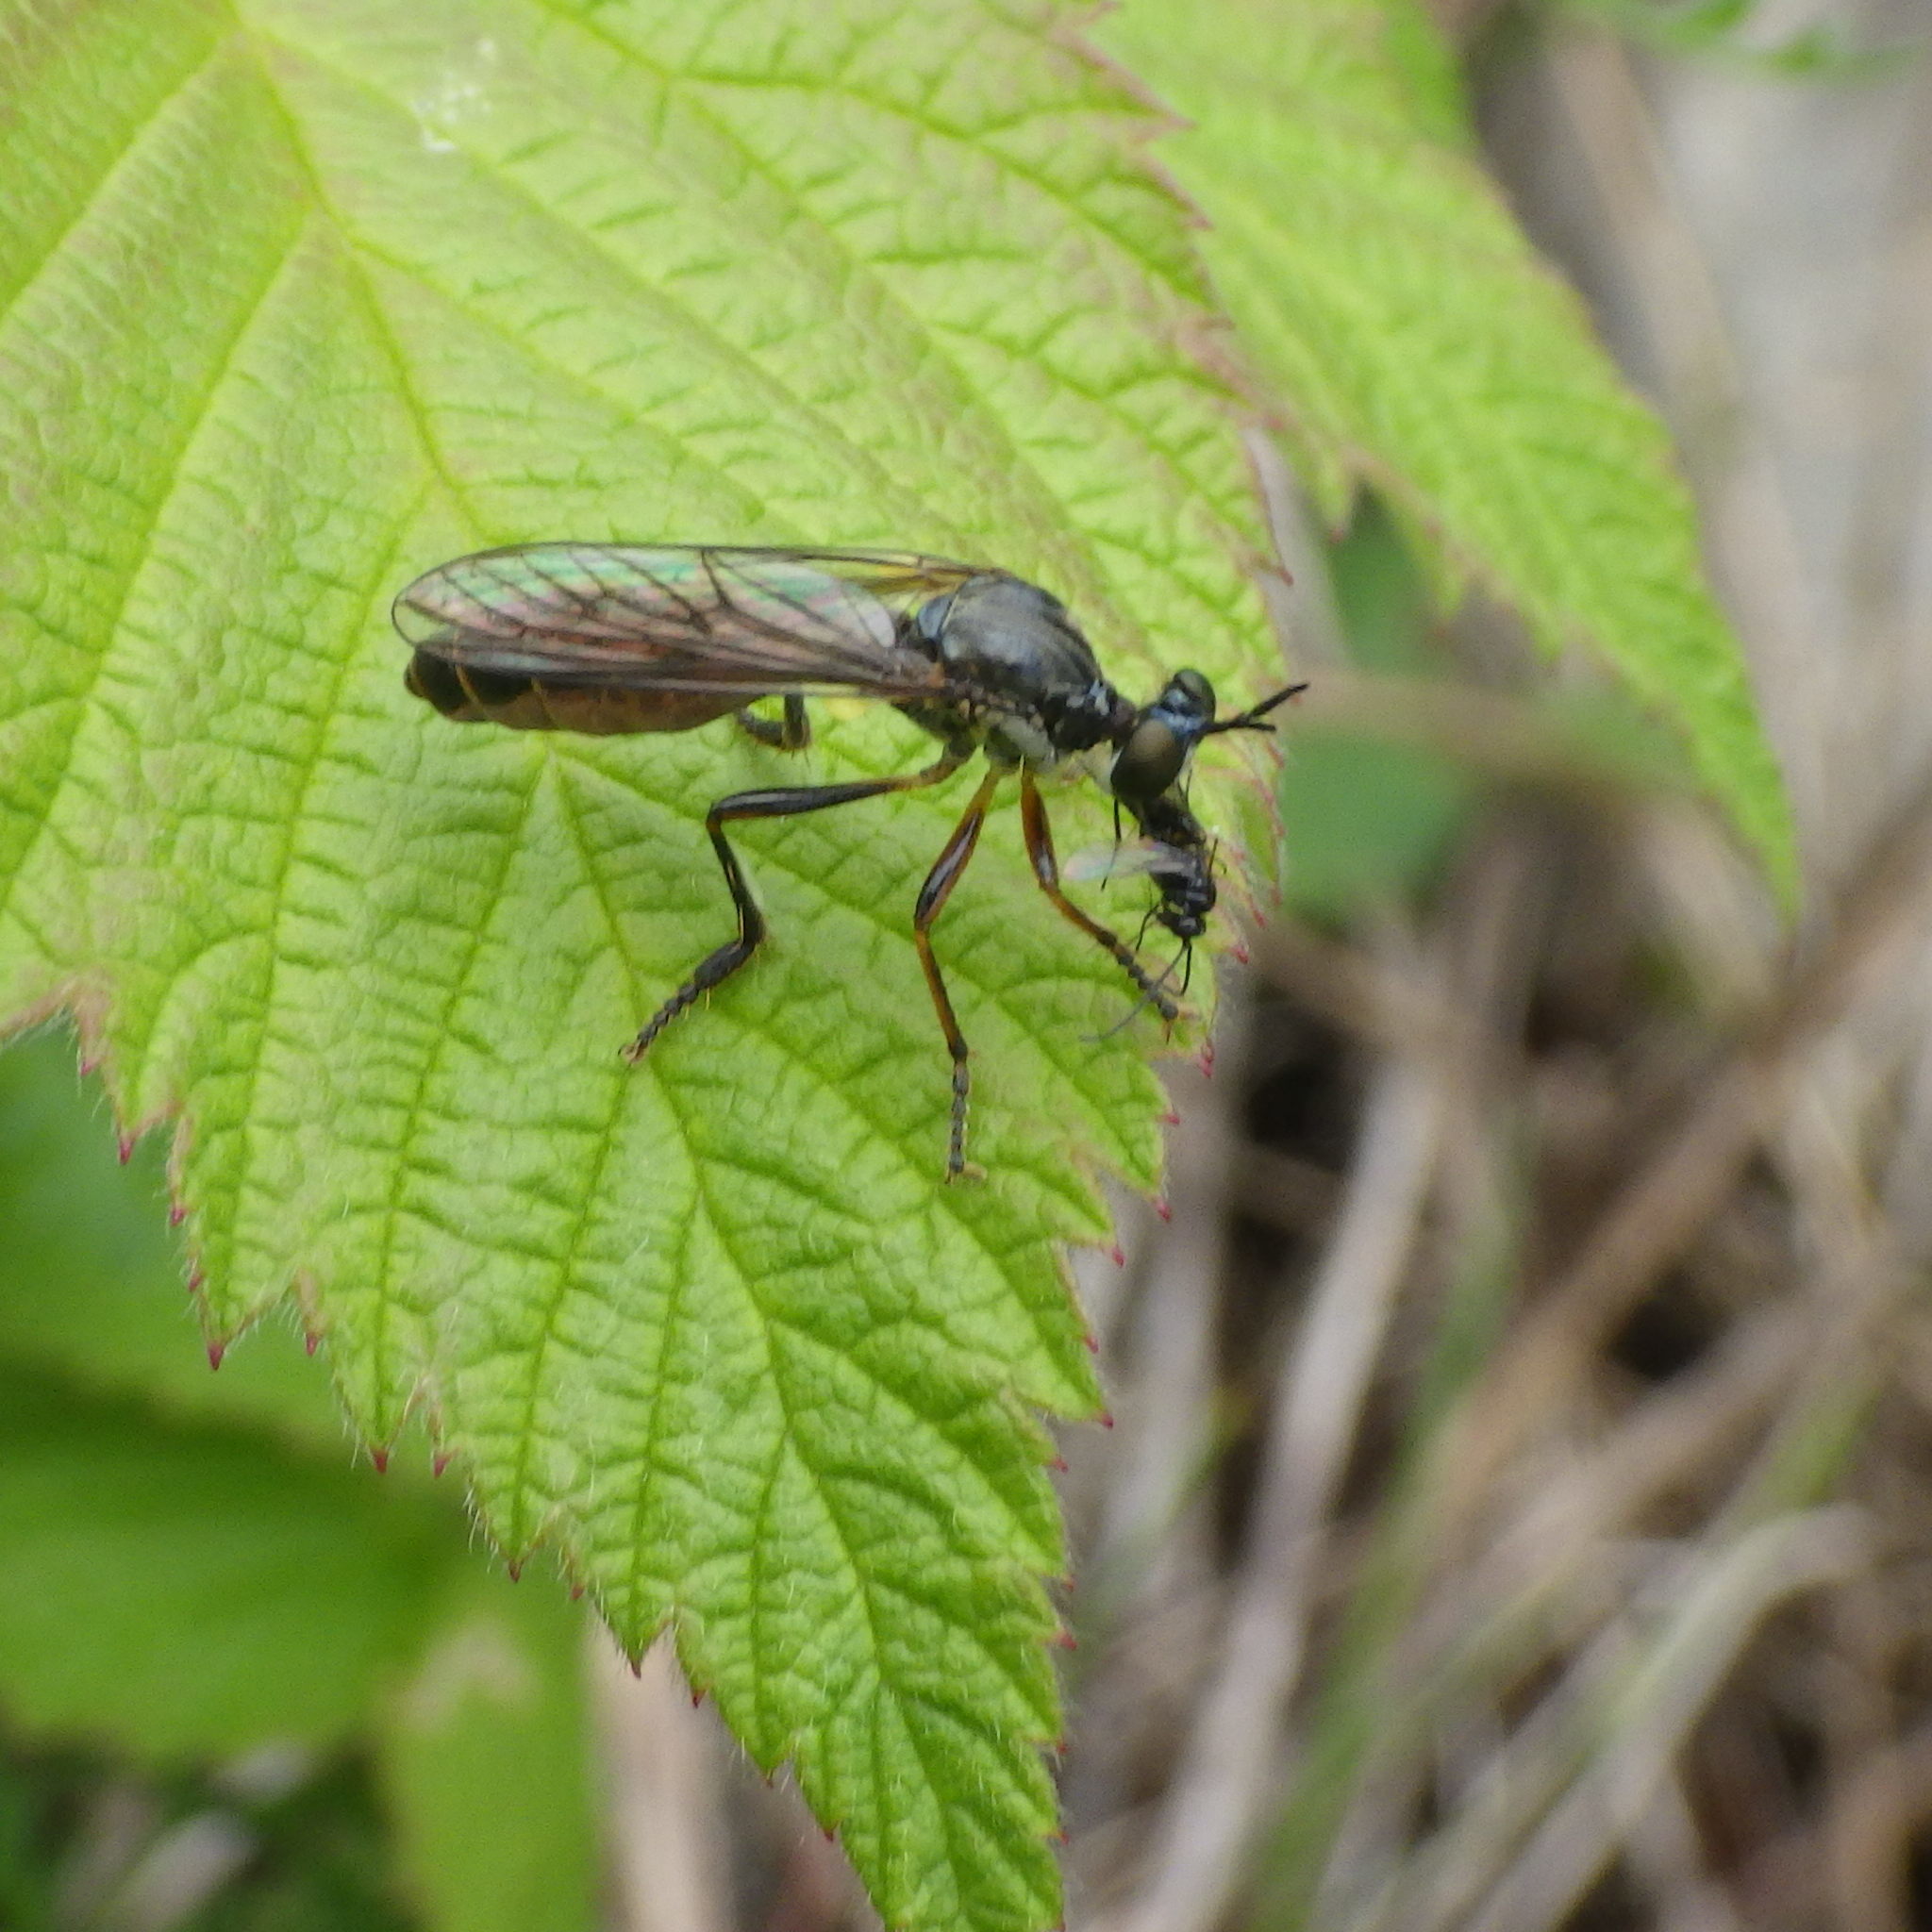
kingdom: Animalia
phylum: Arthropoda
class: Insecta
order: Diptera
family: Asilidae
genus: Dioctria
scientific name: Dioctria hyalipennis
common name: Stripe-legged robberfly
